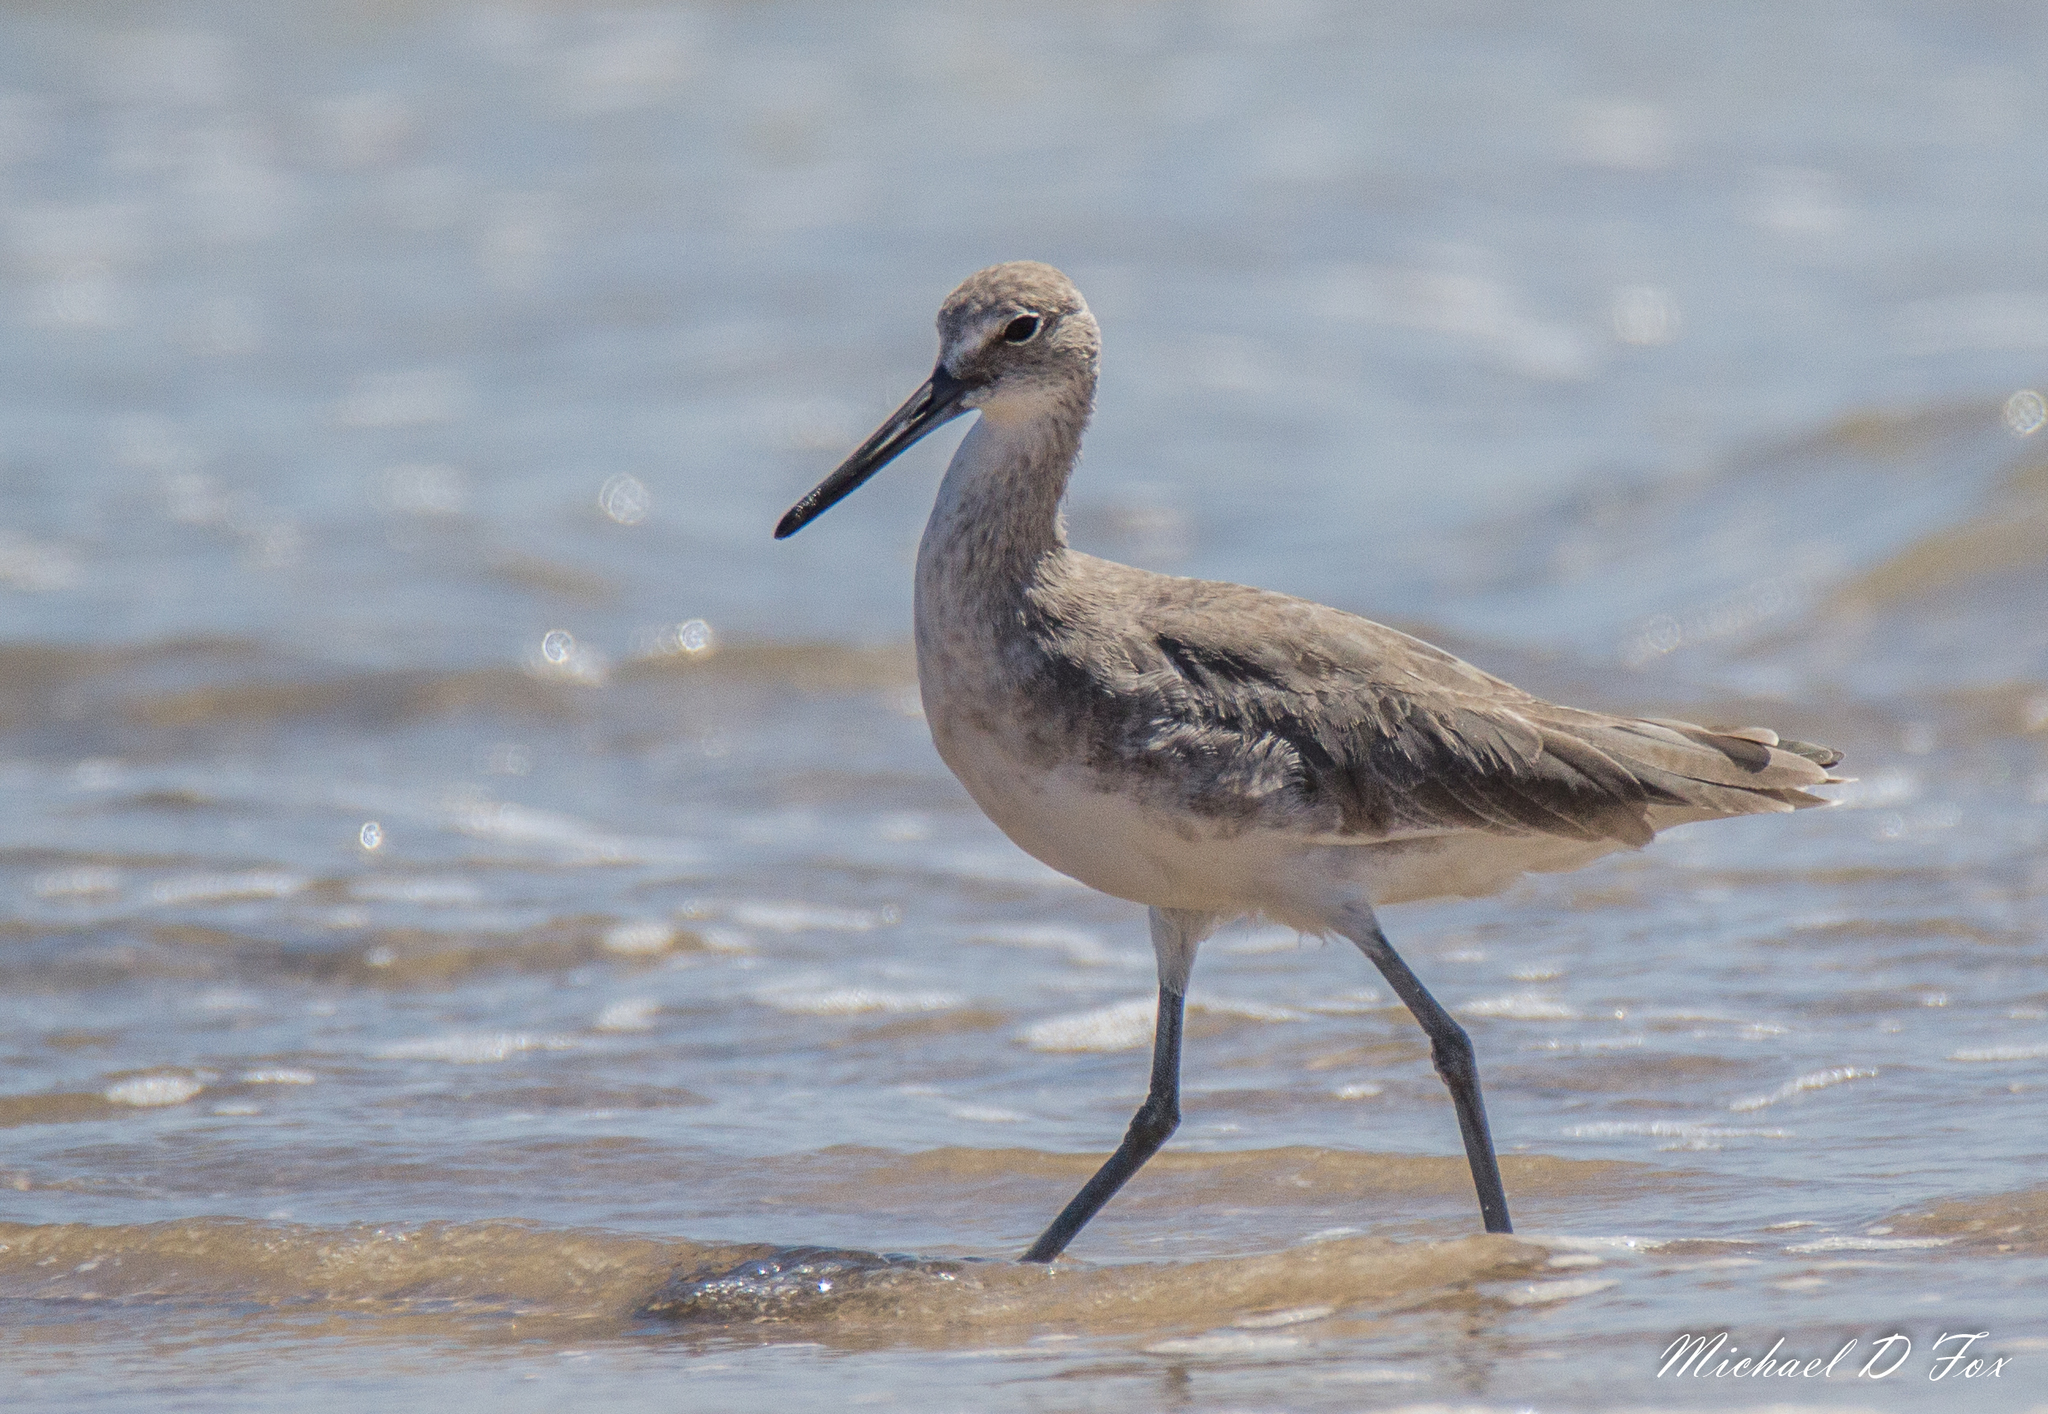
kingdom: Animalia
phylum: Chordata
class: Aves
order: Charadriiformes
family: Scolopacidae
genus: Tringa
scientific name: Tringa semipalmata
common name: Willet
